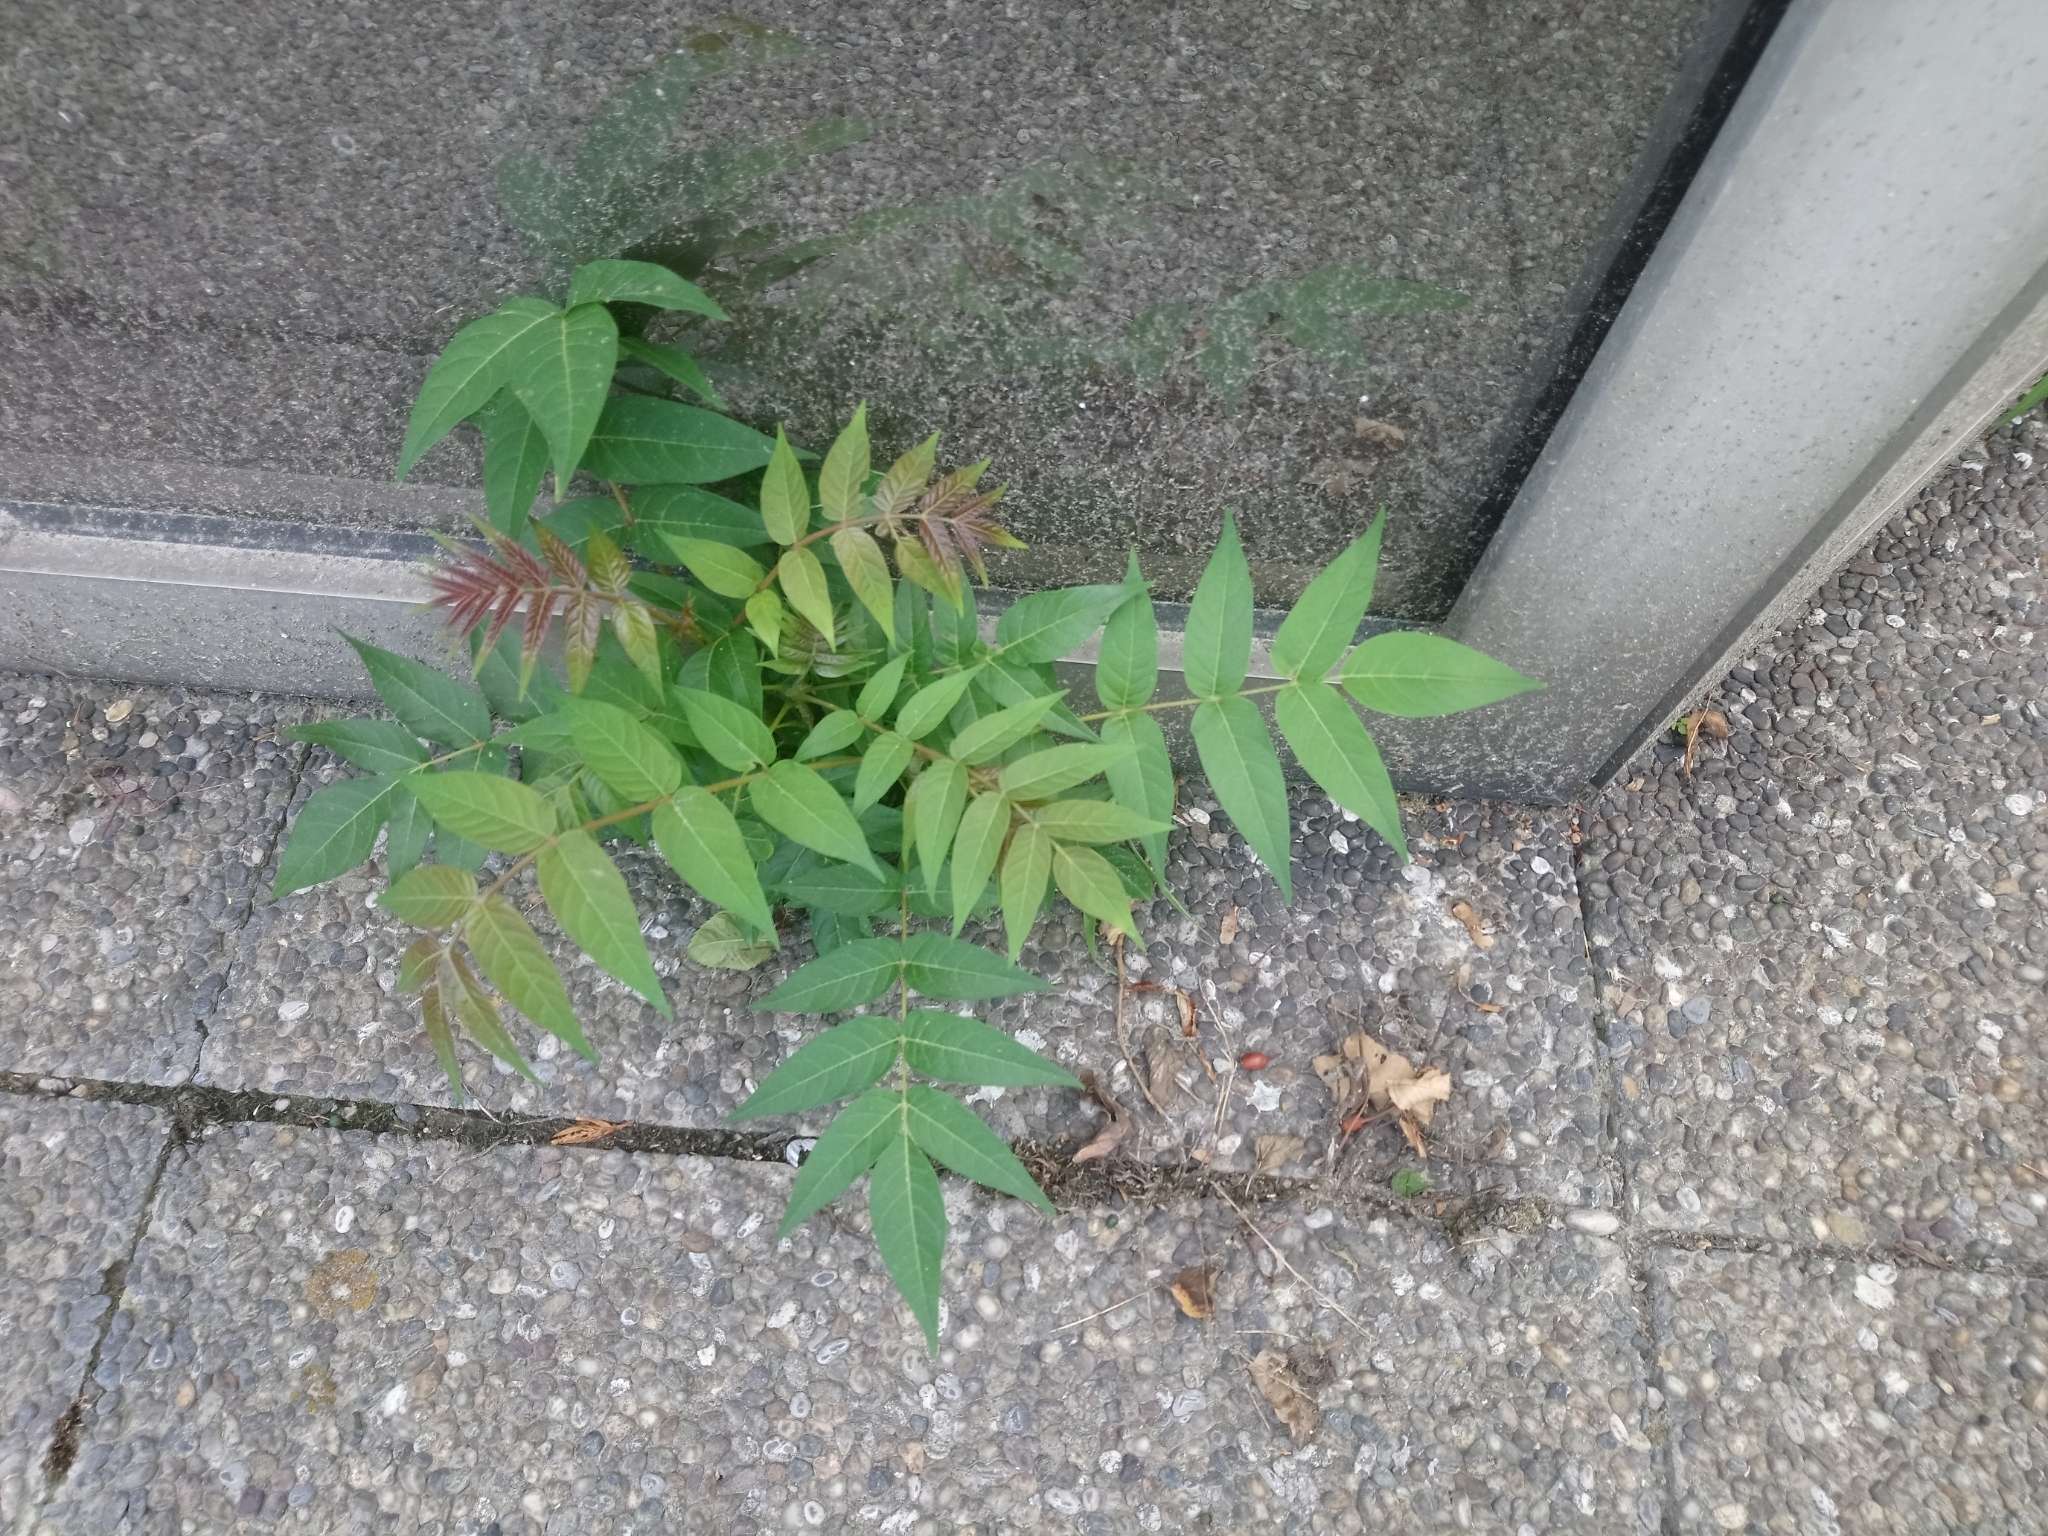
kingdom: Plantae
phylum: Tracheophyta
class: Magnoliopsida
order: Sapindales
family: Simaroubaceae
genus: Ailanthus
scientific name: Ailanthus altissima
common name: Tree-of-heaven
